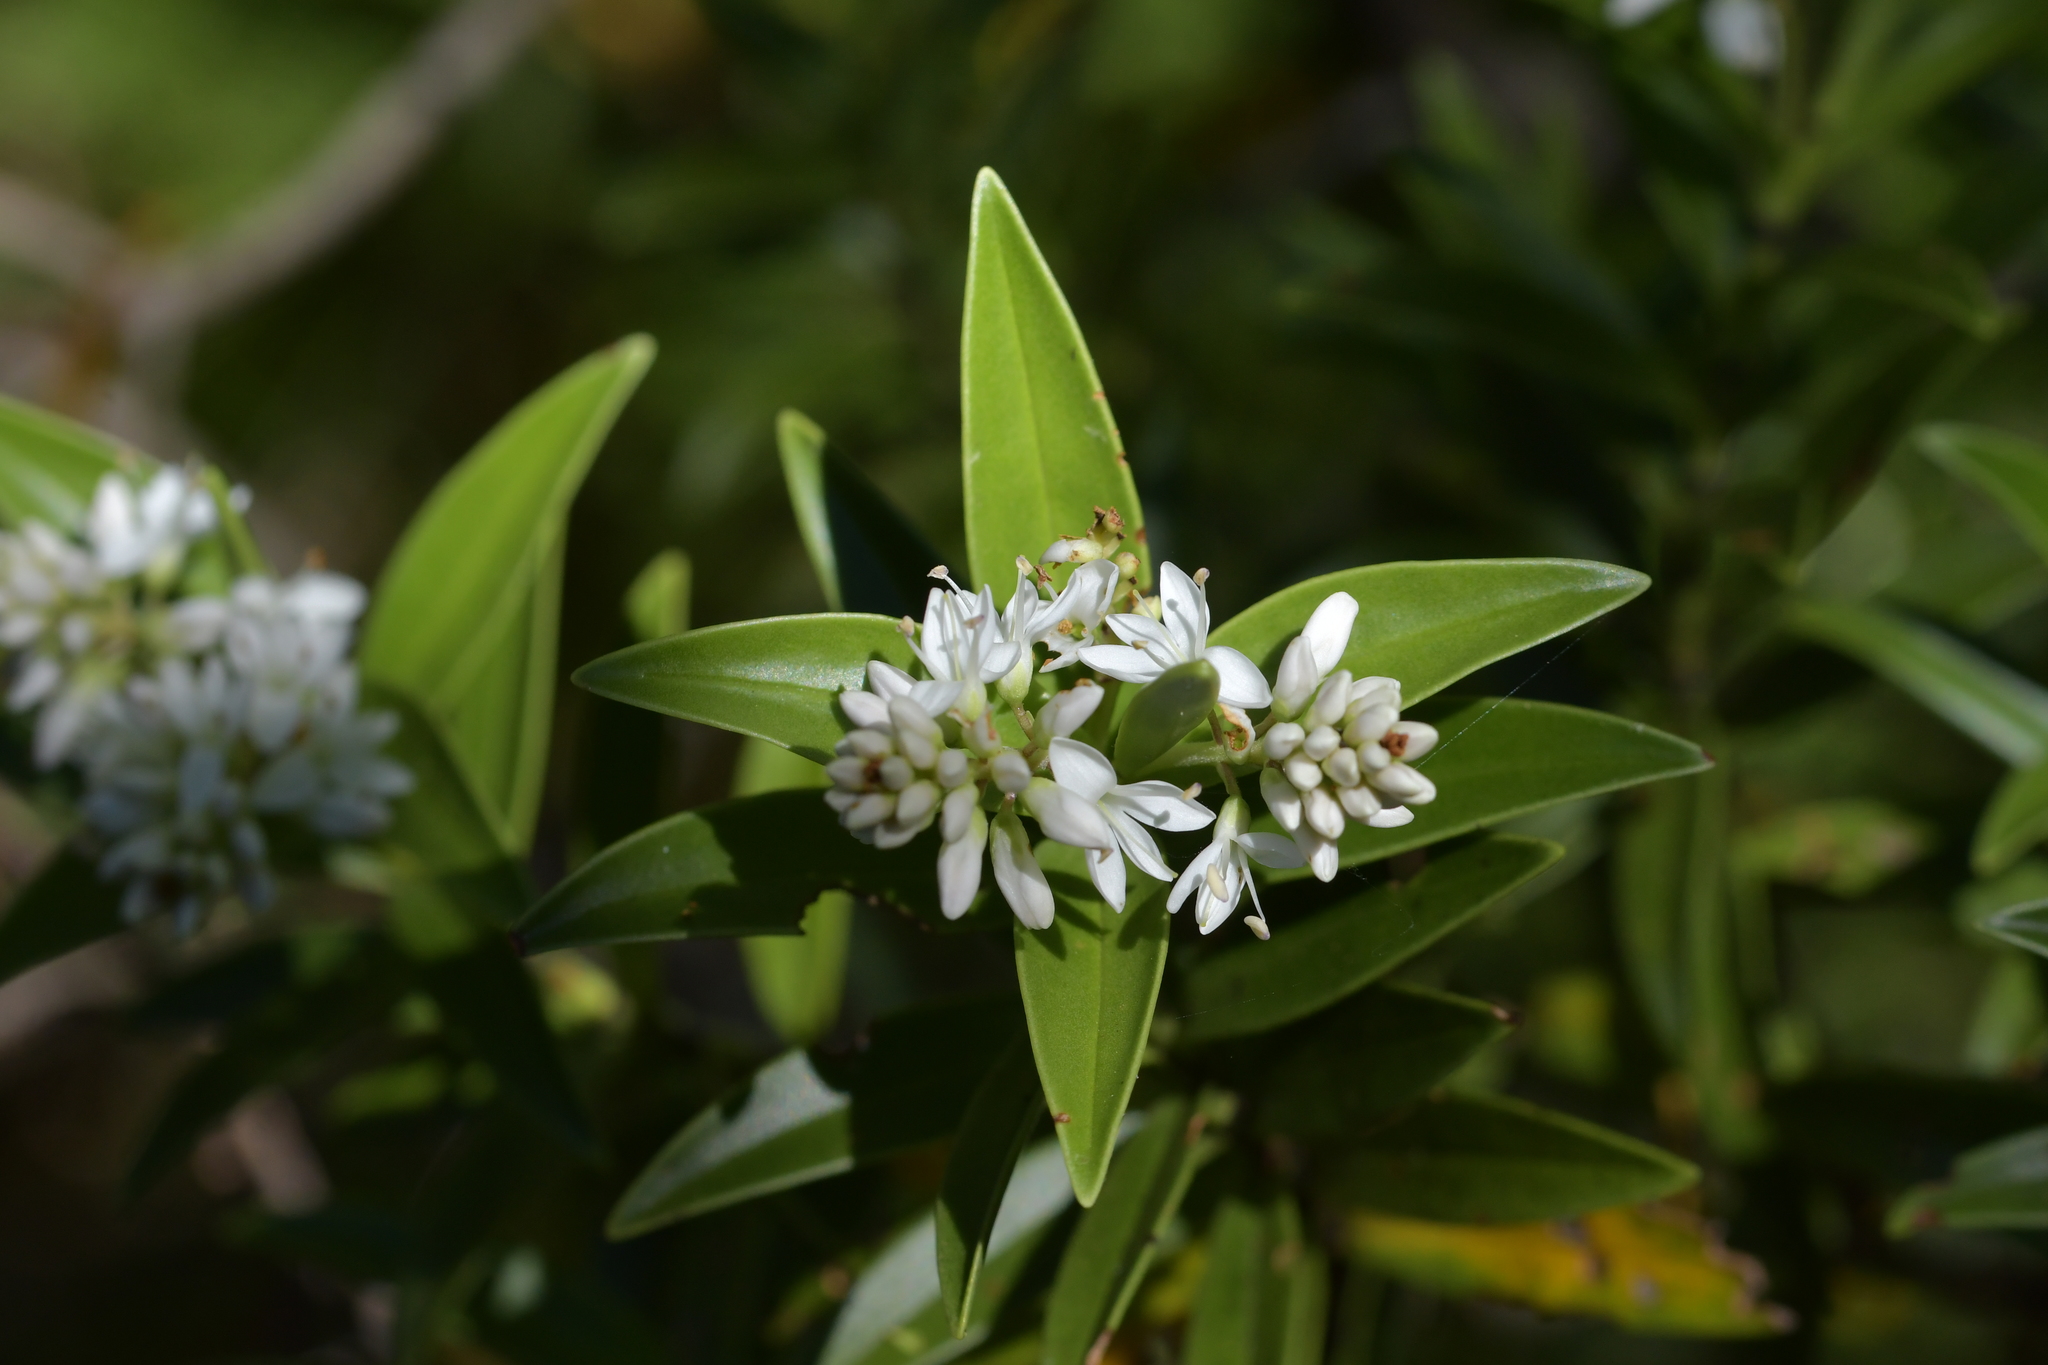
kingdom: Plantae
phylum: Tracheophyta
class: Magnoliopsida
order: Lamiales
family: Plantaginaceae
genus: Veronica
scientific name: Veronica subalpina
